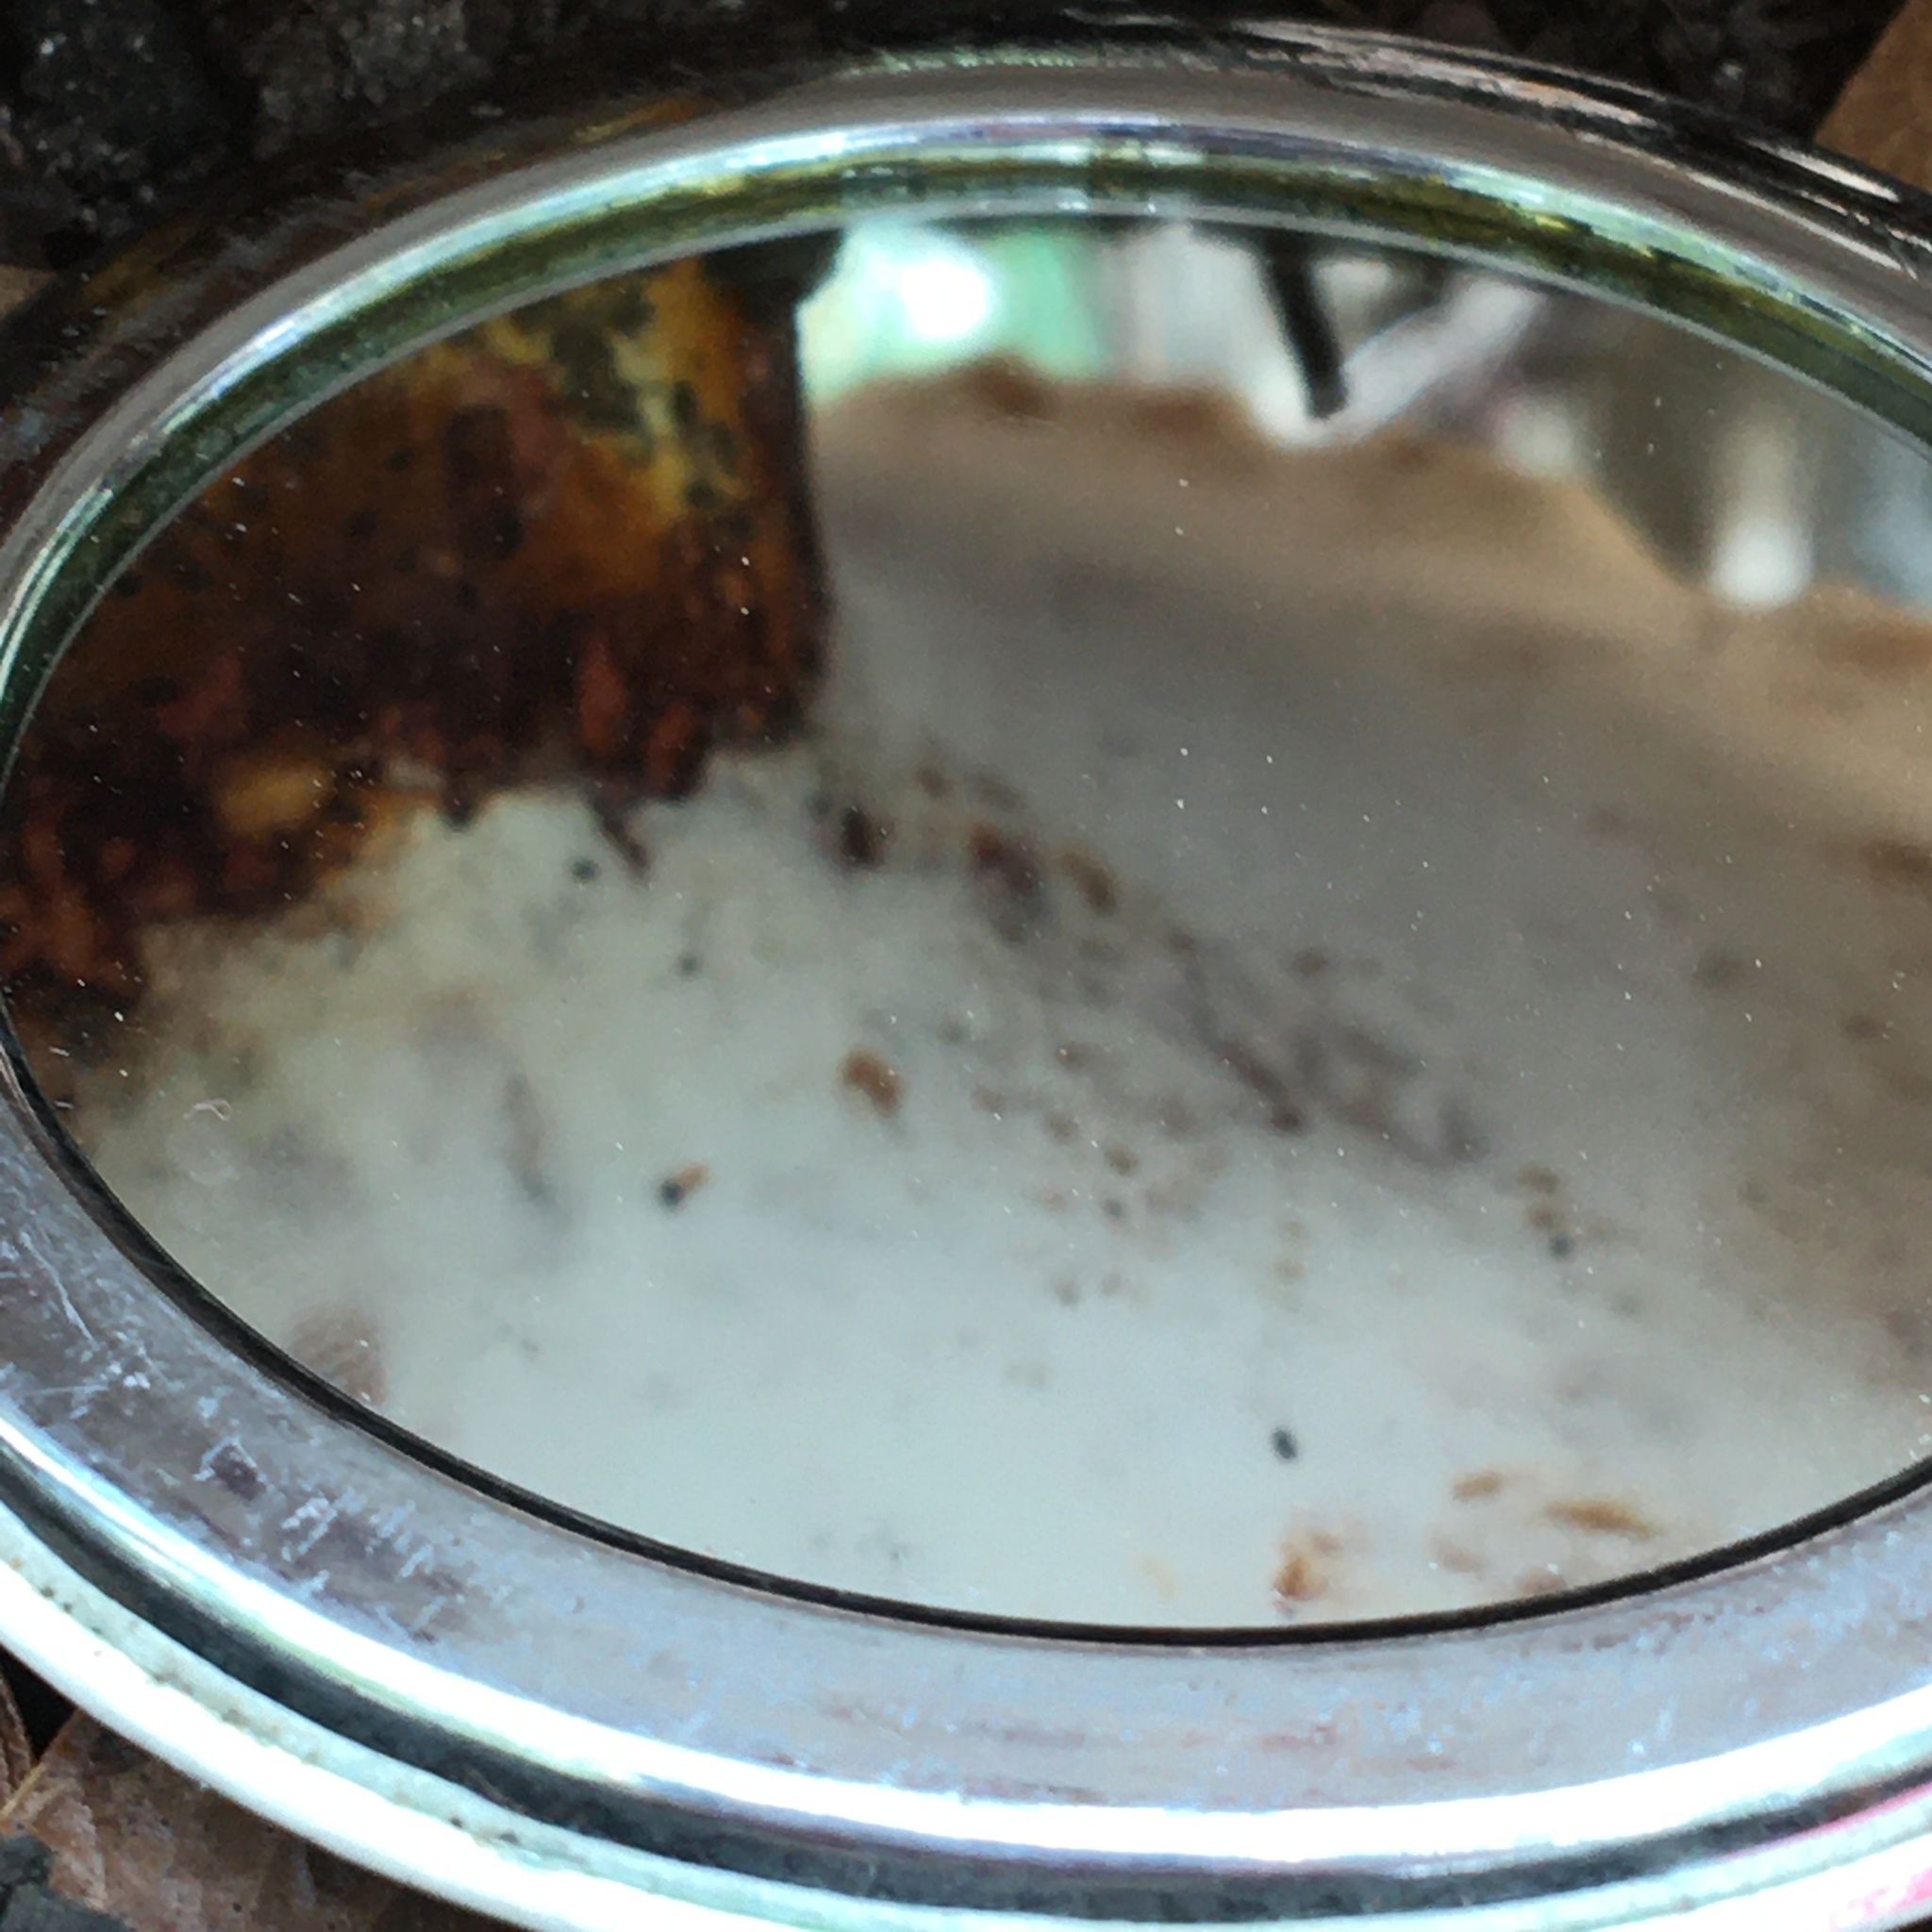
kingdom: Fungi
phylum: Basidiomycota
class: Agaricomycetes
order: Polyporales
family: Fomitopsidaceae
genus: Fomitopsis
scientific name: Fomitopsis
